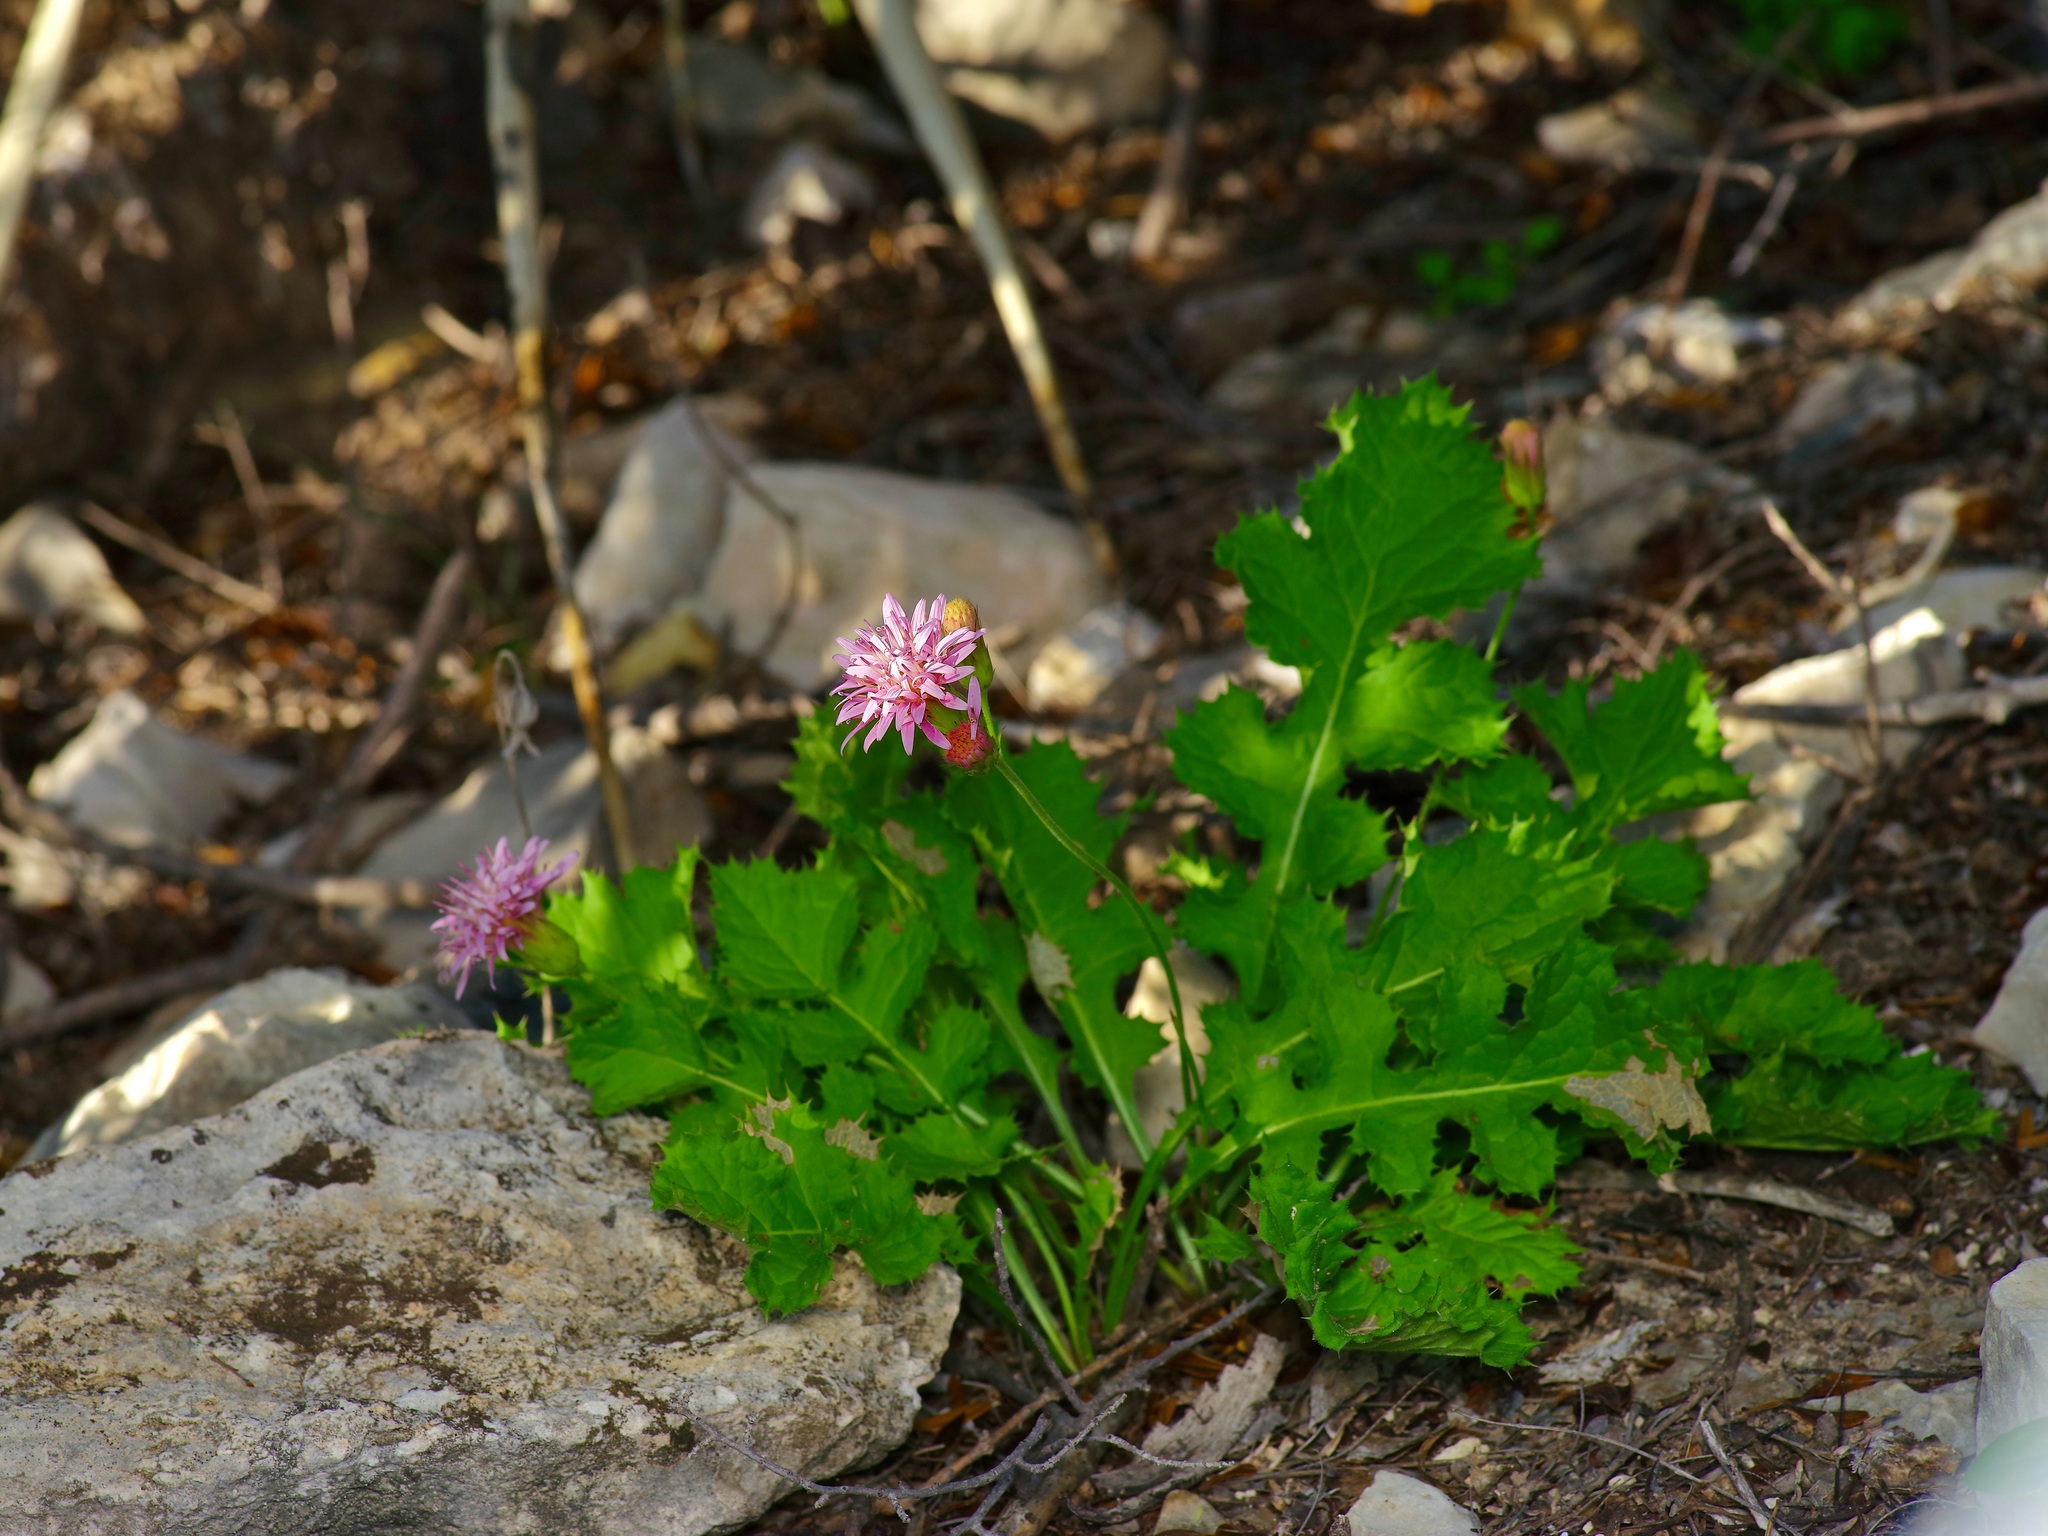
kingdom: Plantae
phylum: Tracheophyta
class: Magnoliopsida
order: Asterales
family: Asteraceae
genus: Acourtia
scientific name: Acourtia runcinata
